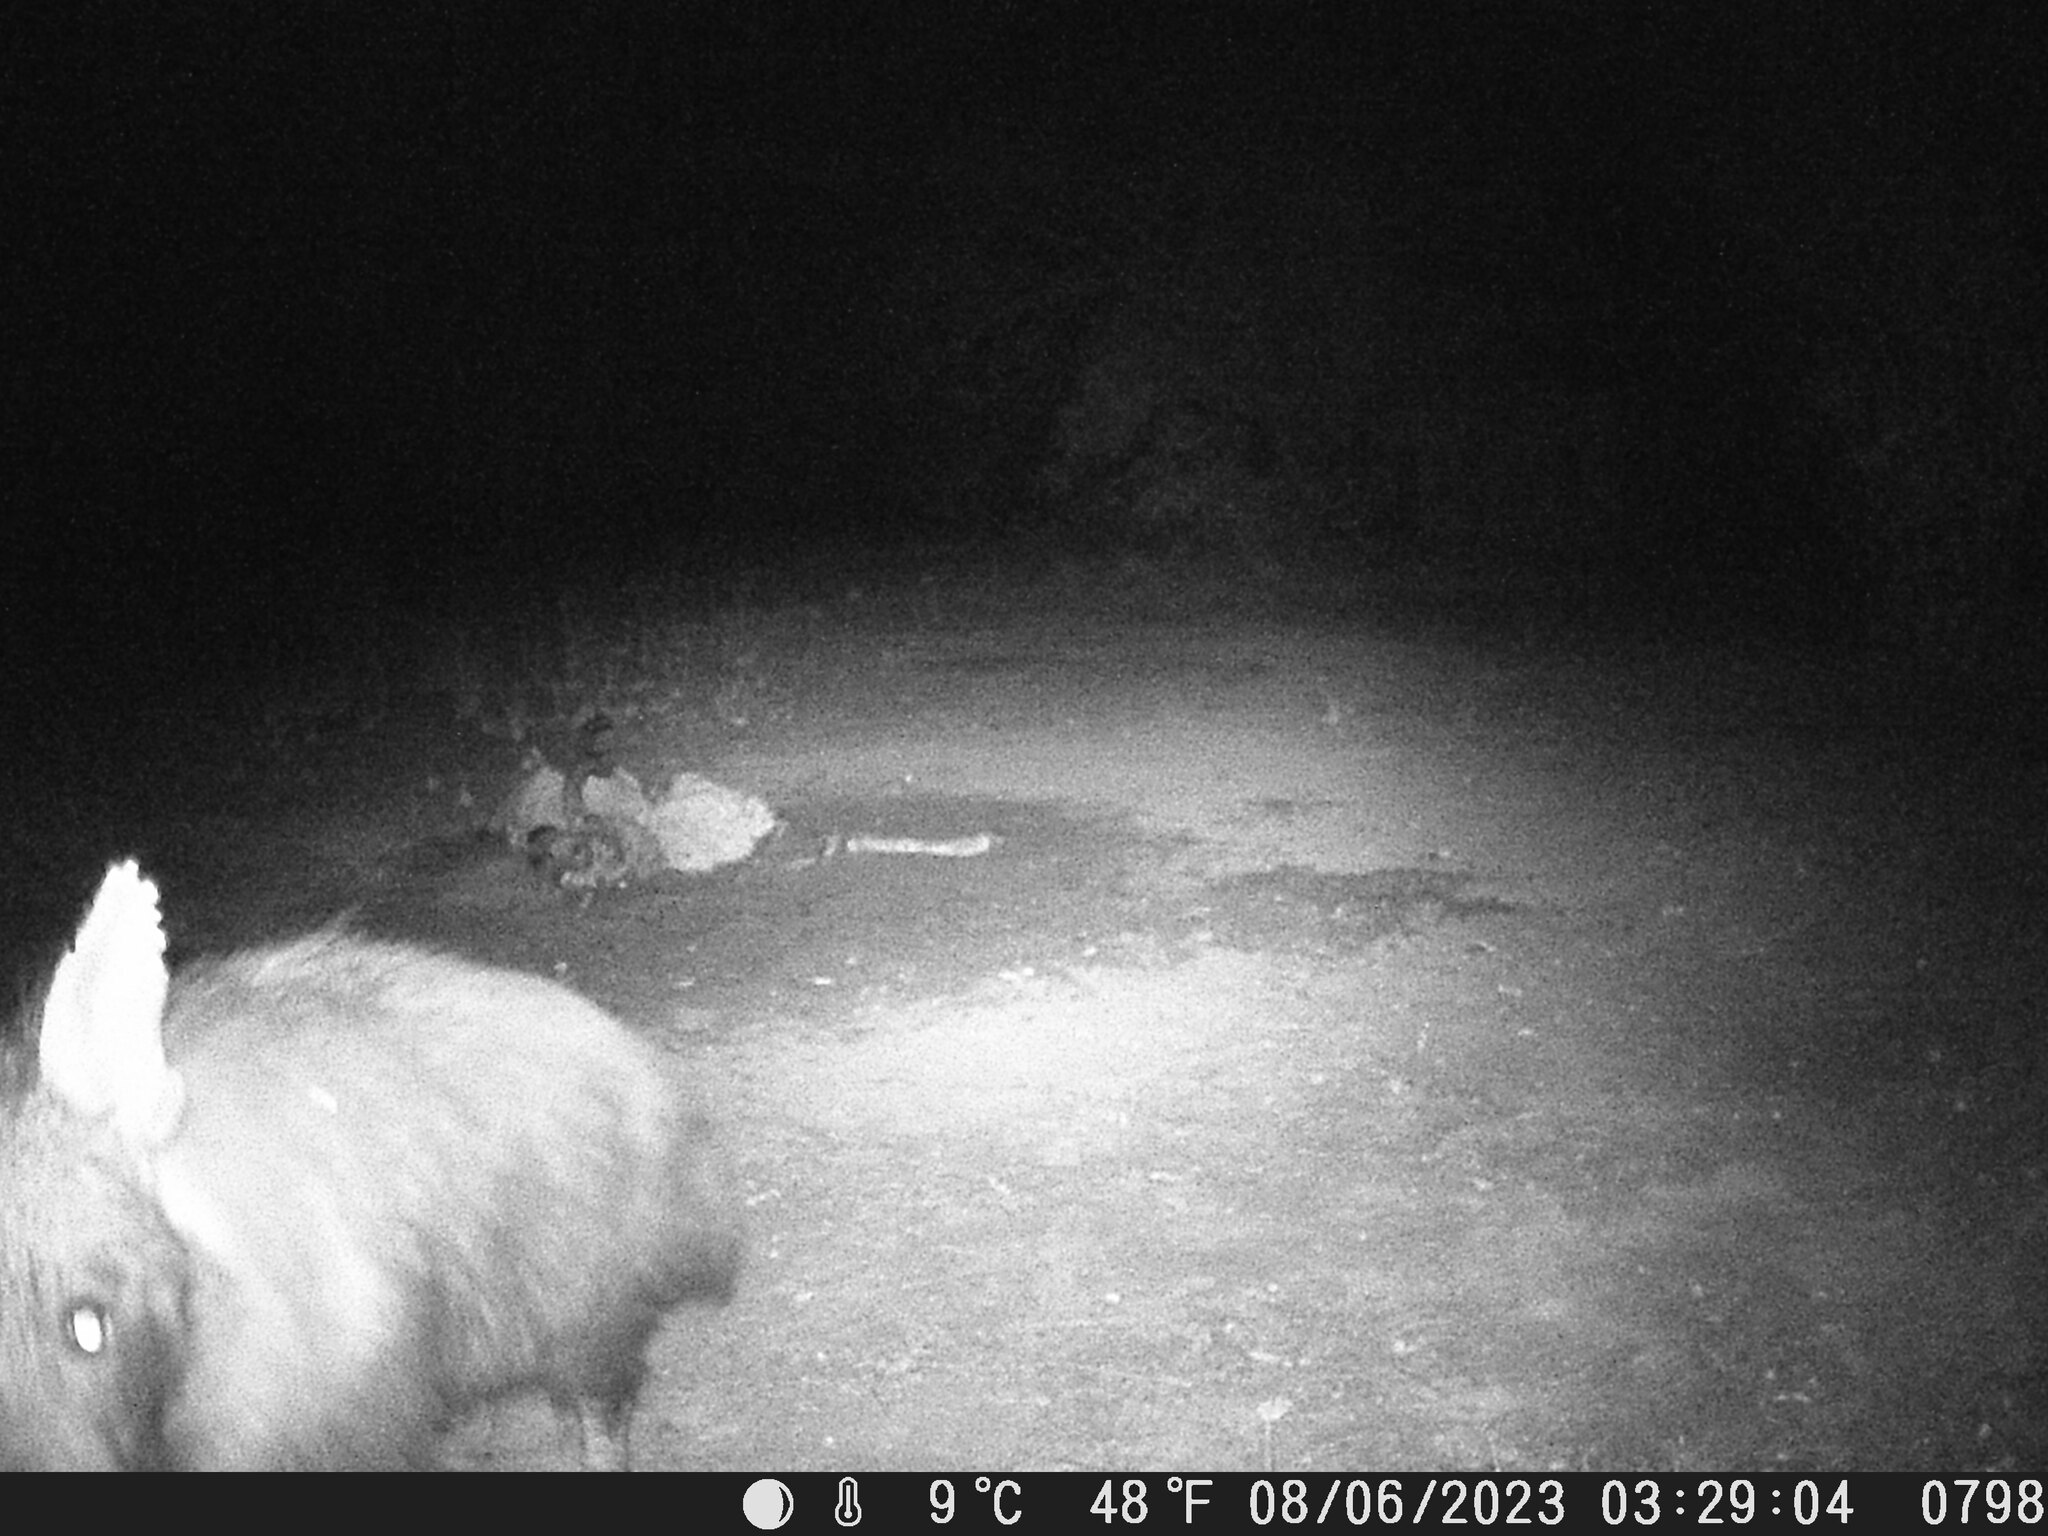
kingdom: Animalia
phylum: Chordata
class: Mammalia
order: Carnivora
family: Hyaenidae
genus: Hyaena
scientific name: Hyaena brunnea
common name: Brown hyena
